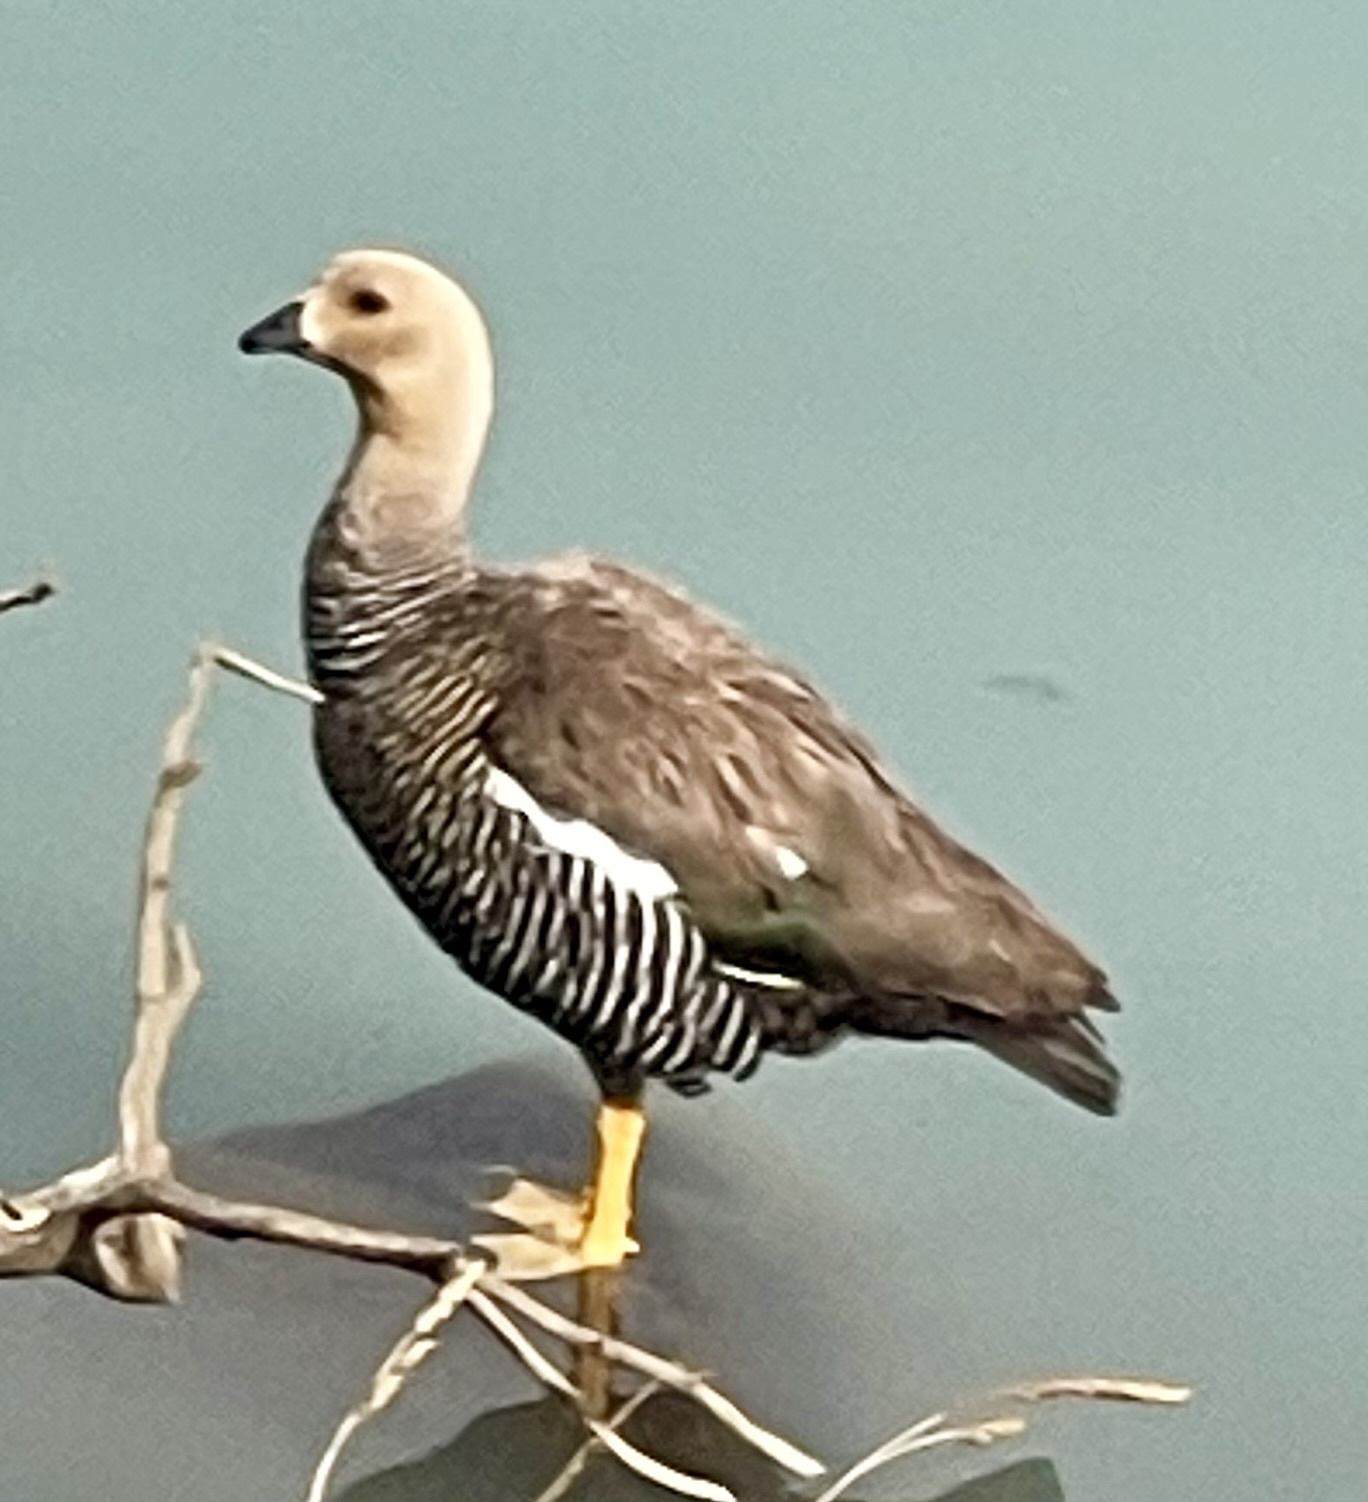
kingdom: Animalia
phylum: Chordata
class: Aves
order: Anseriformes
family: Anatidae
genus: Chloephaga
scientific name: Chloephaga picta
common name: Upland goose
